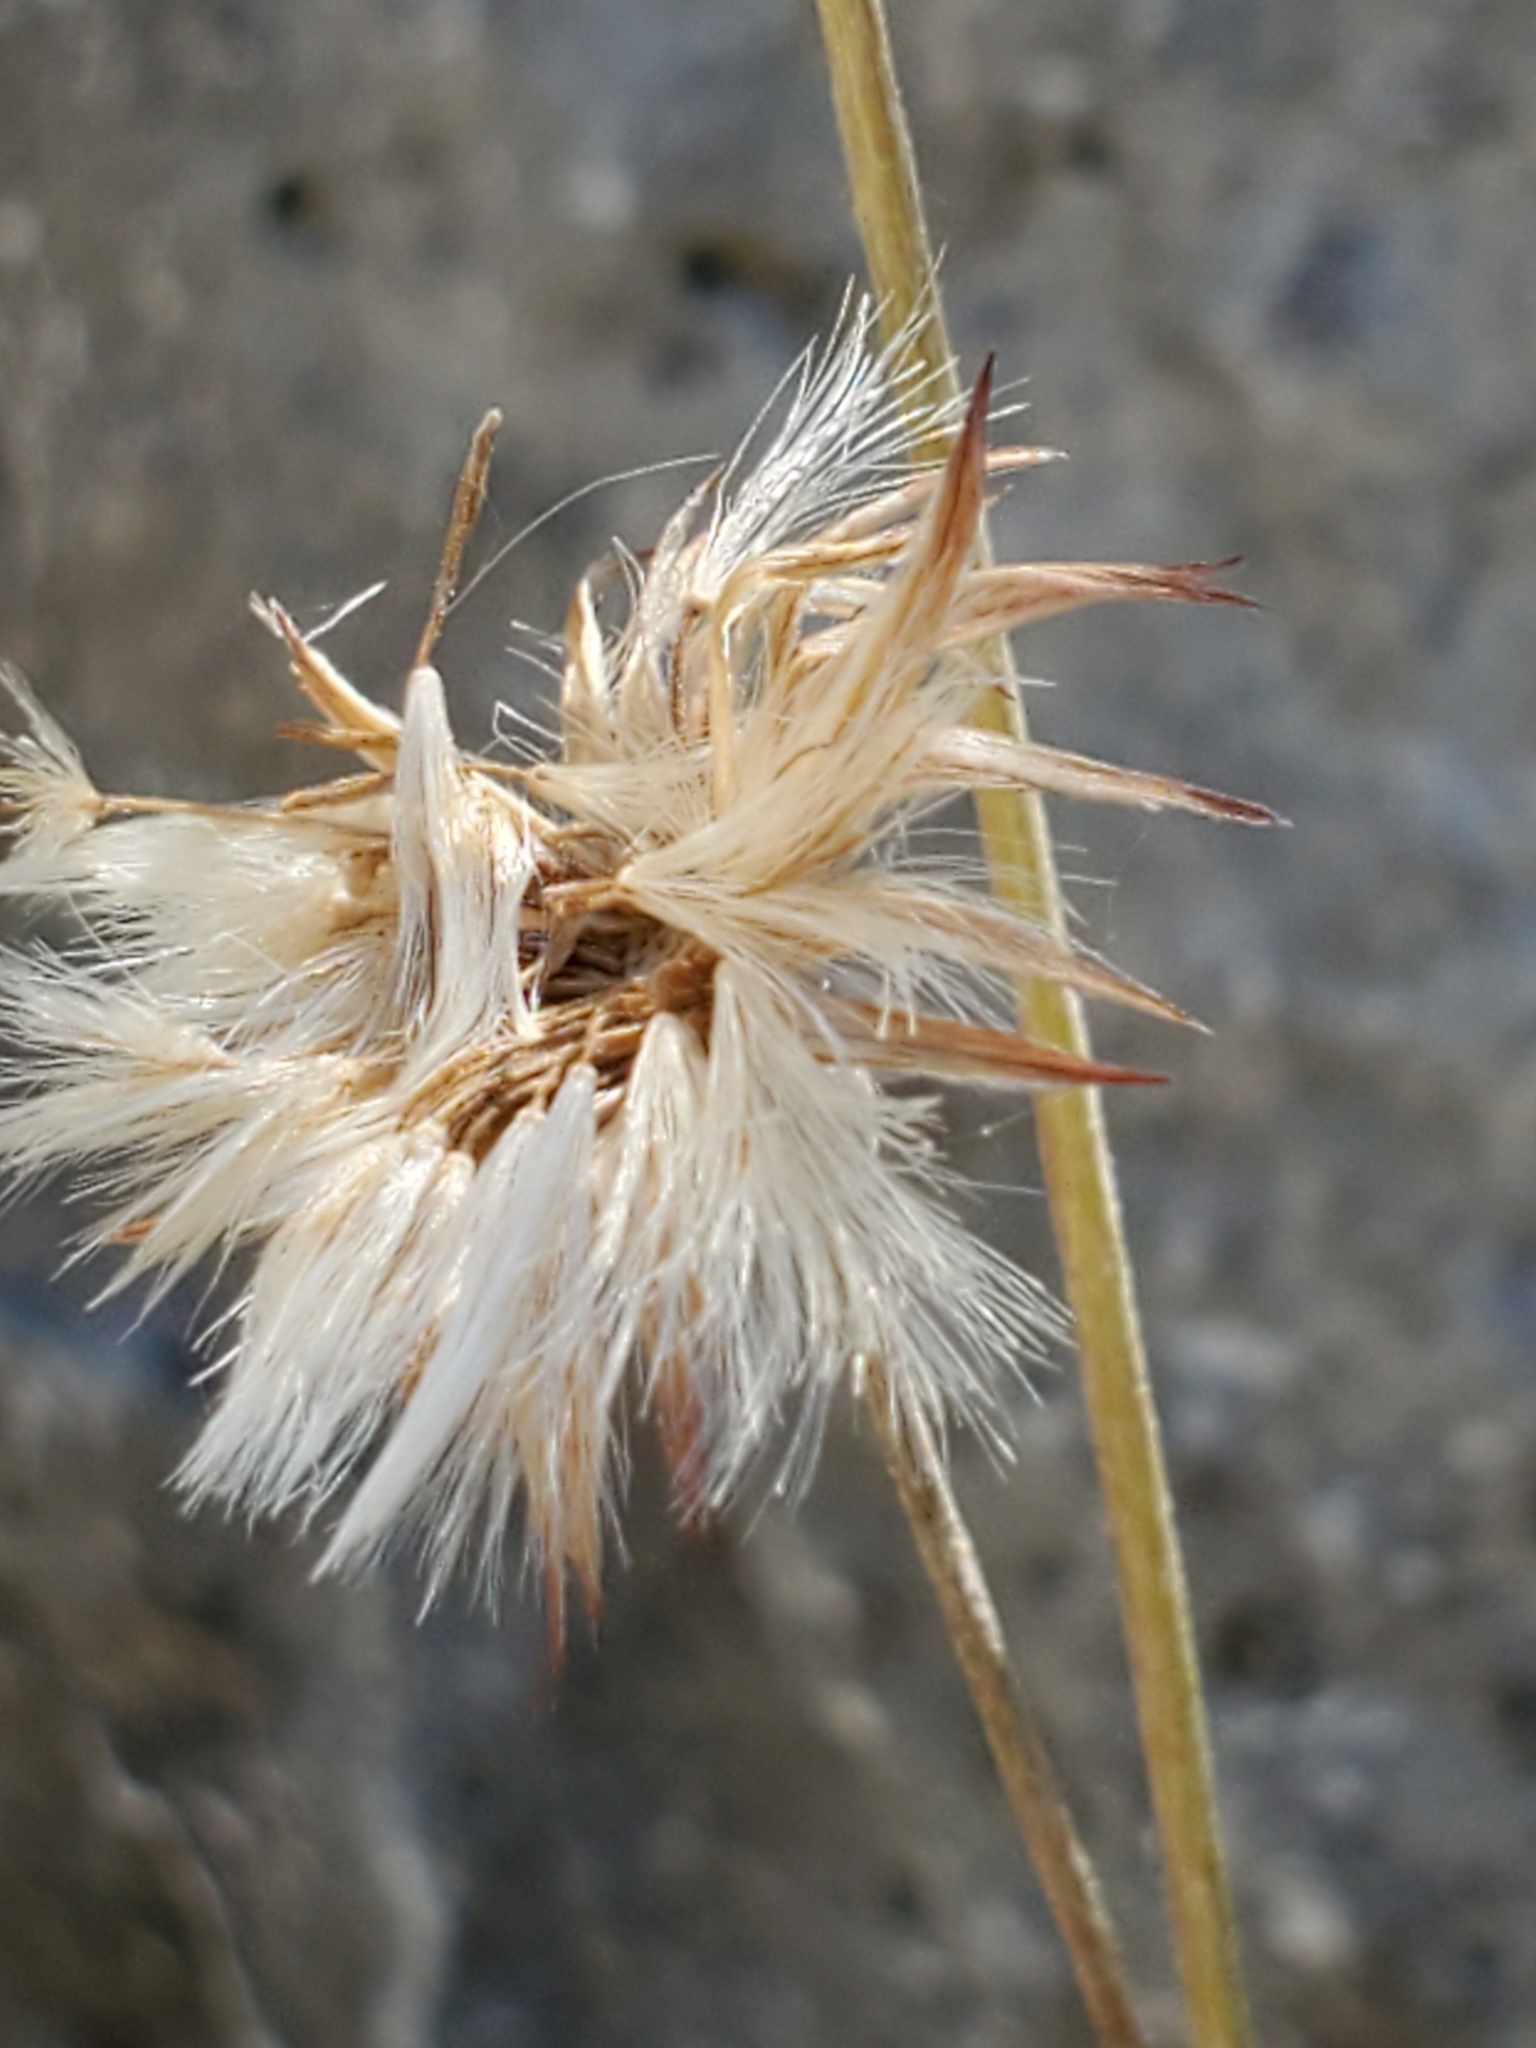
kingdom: Plantae
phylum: Tracheophyta
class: Magnoliopsida
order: Asterales
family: Asteraceae
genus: Chaptalia
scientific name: Chaptalia texana
